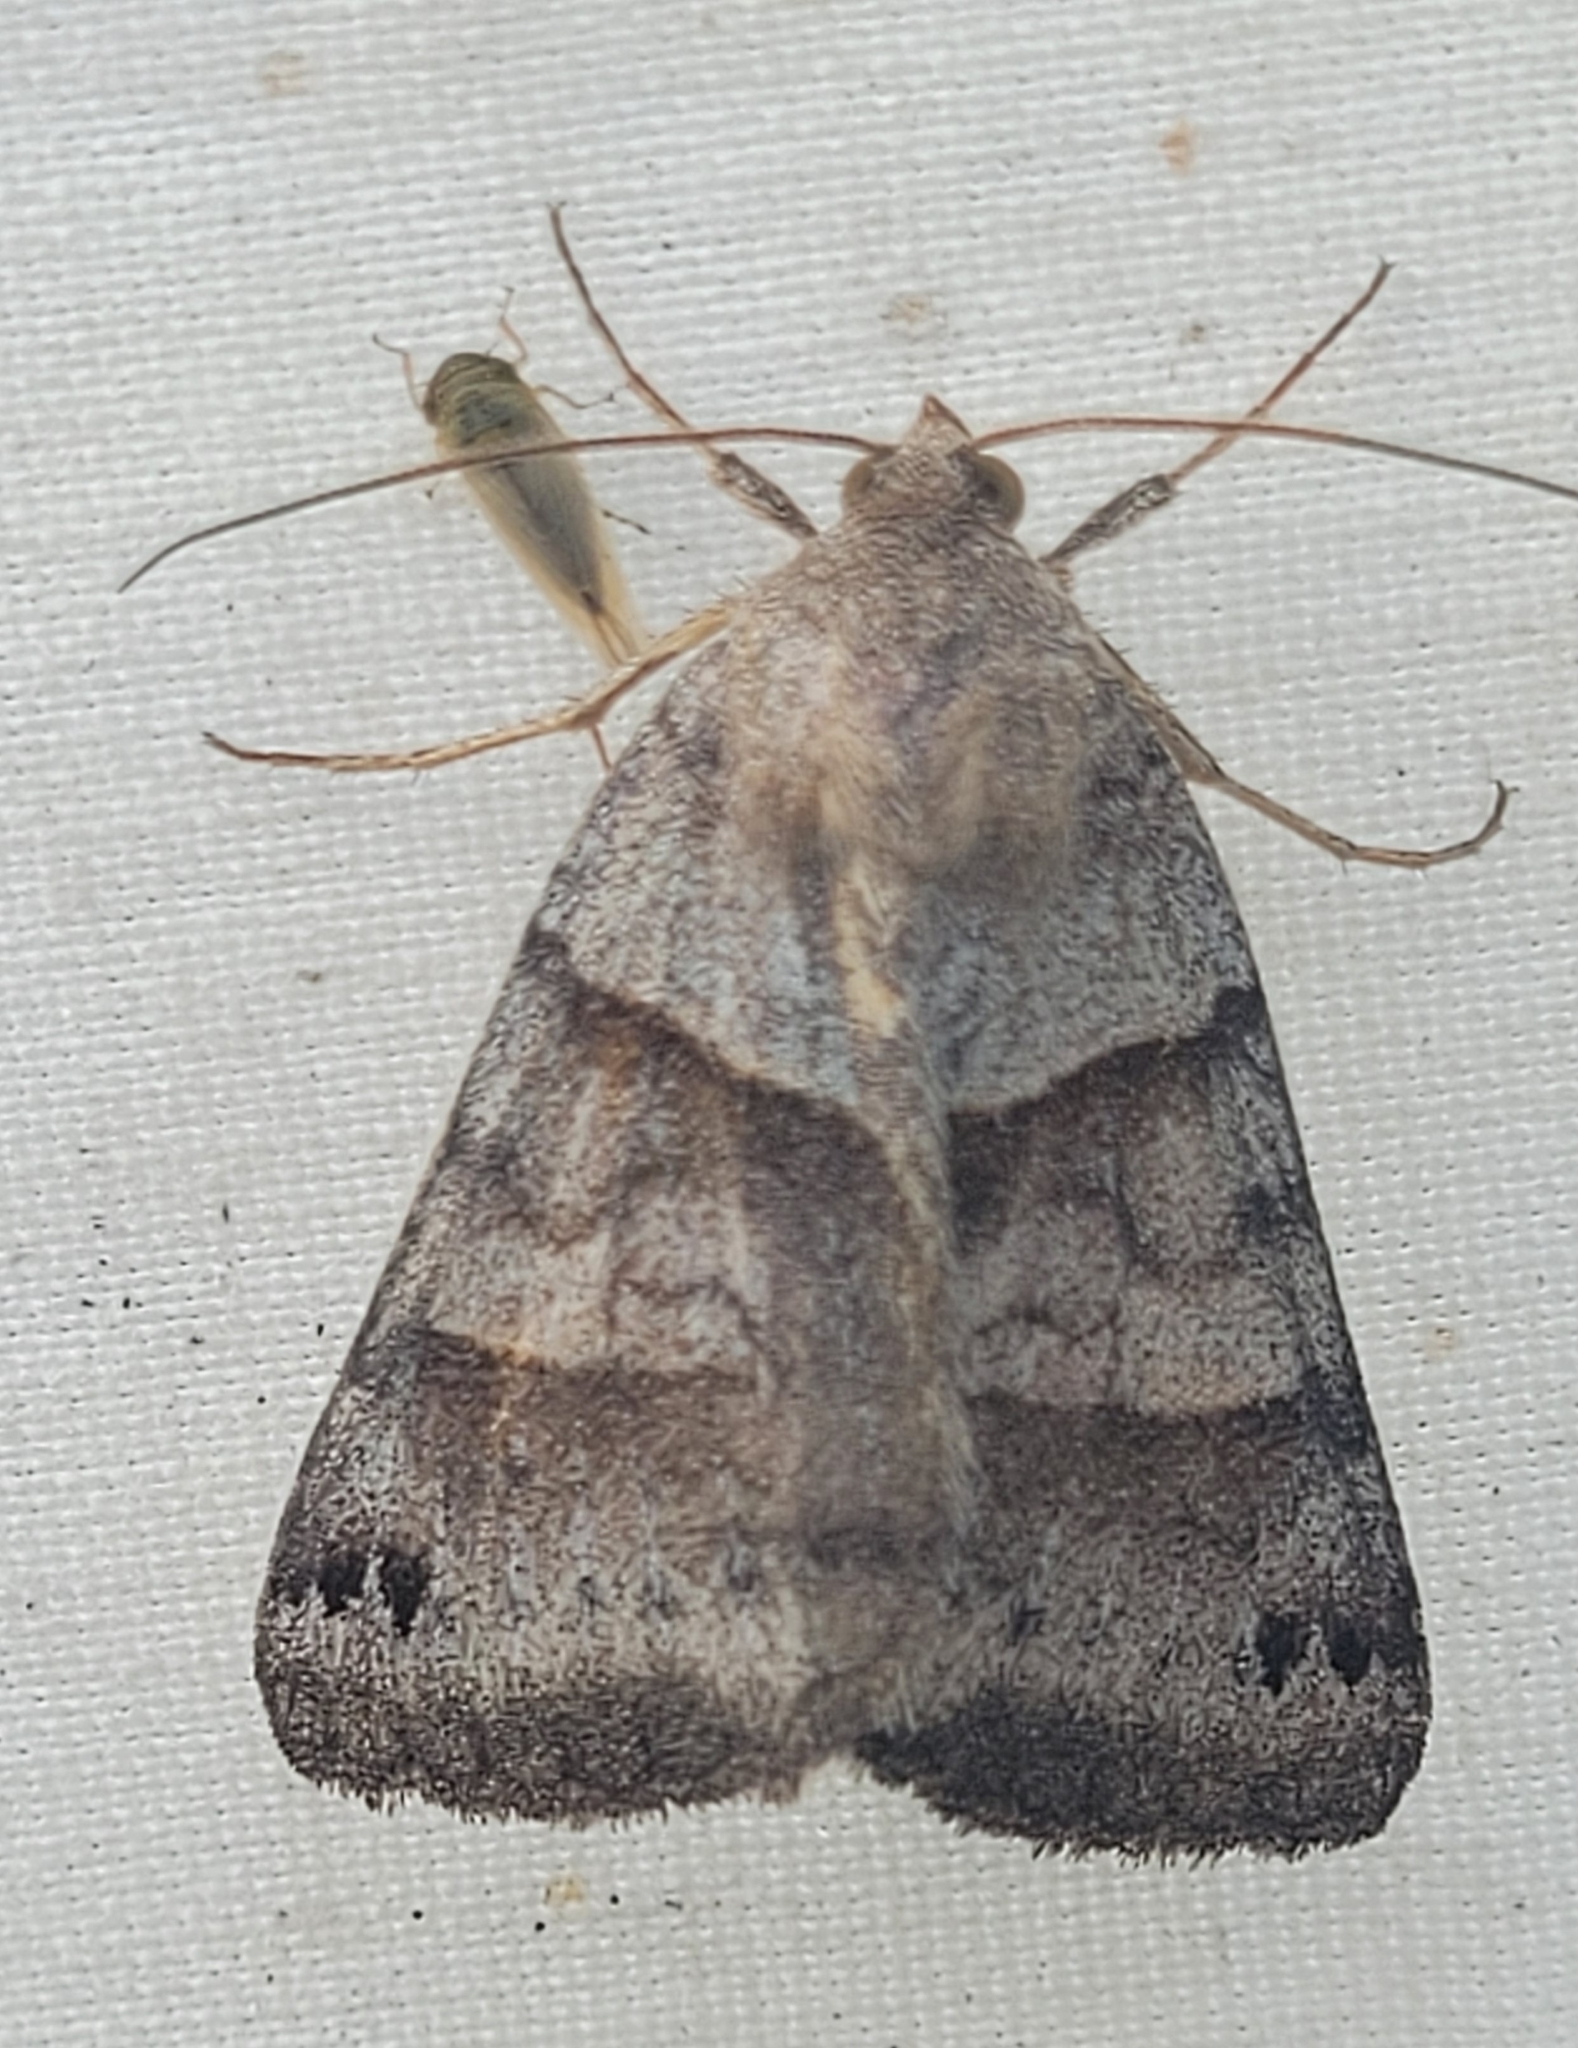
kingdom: Animalia
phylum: Arthropoda
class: Insecta
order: Lepidoptera
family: Erebidae
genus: Caenurgina
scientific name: Caenurgina crassiuscula
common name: Double-barred
